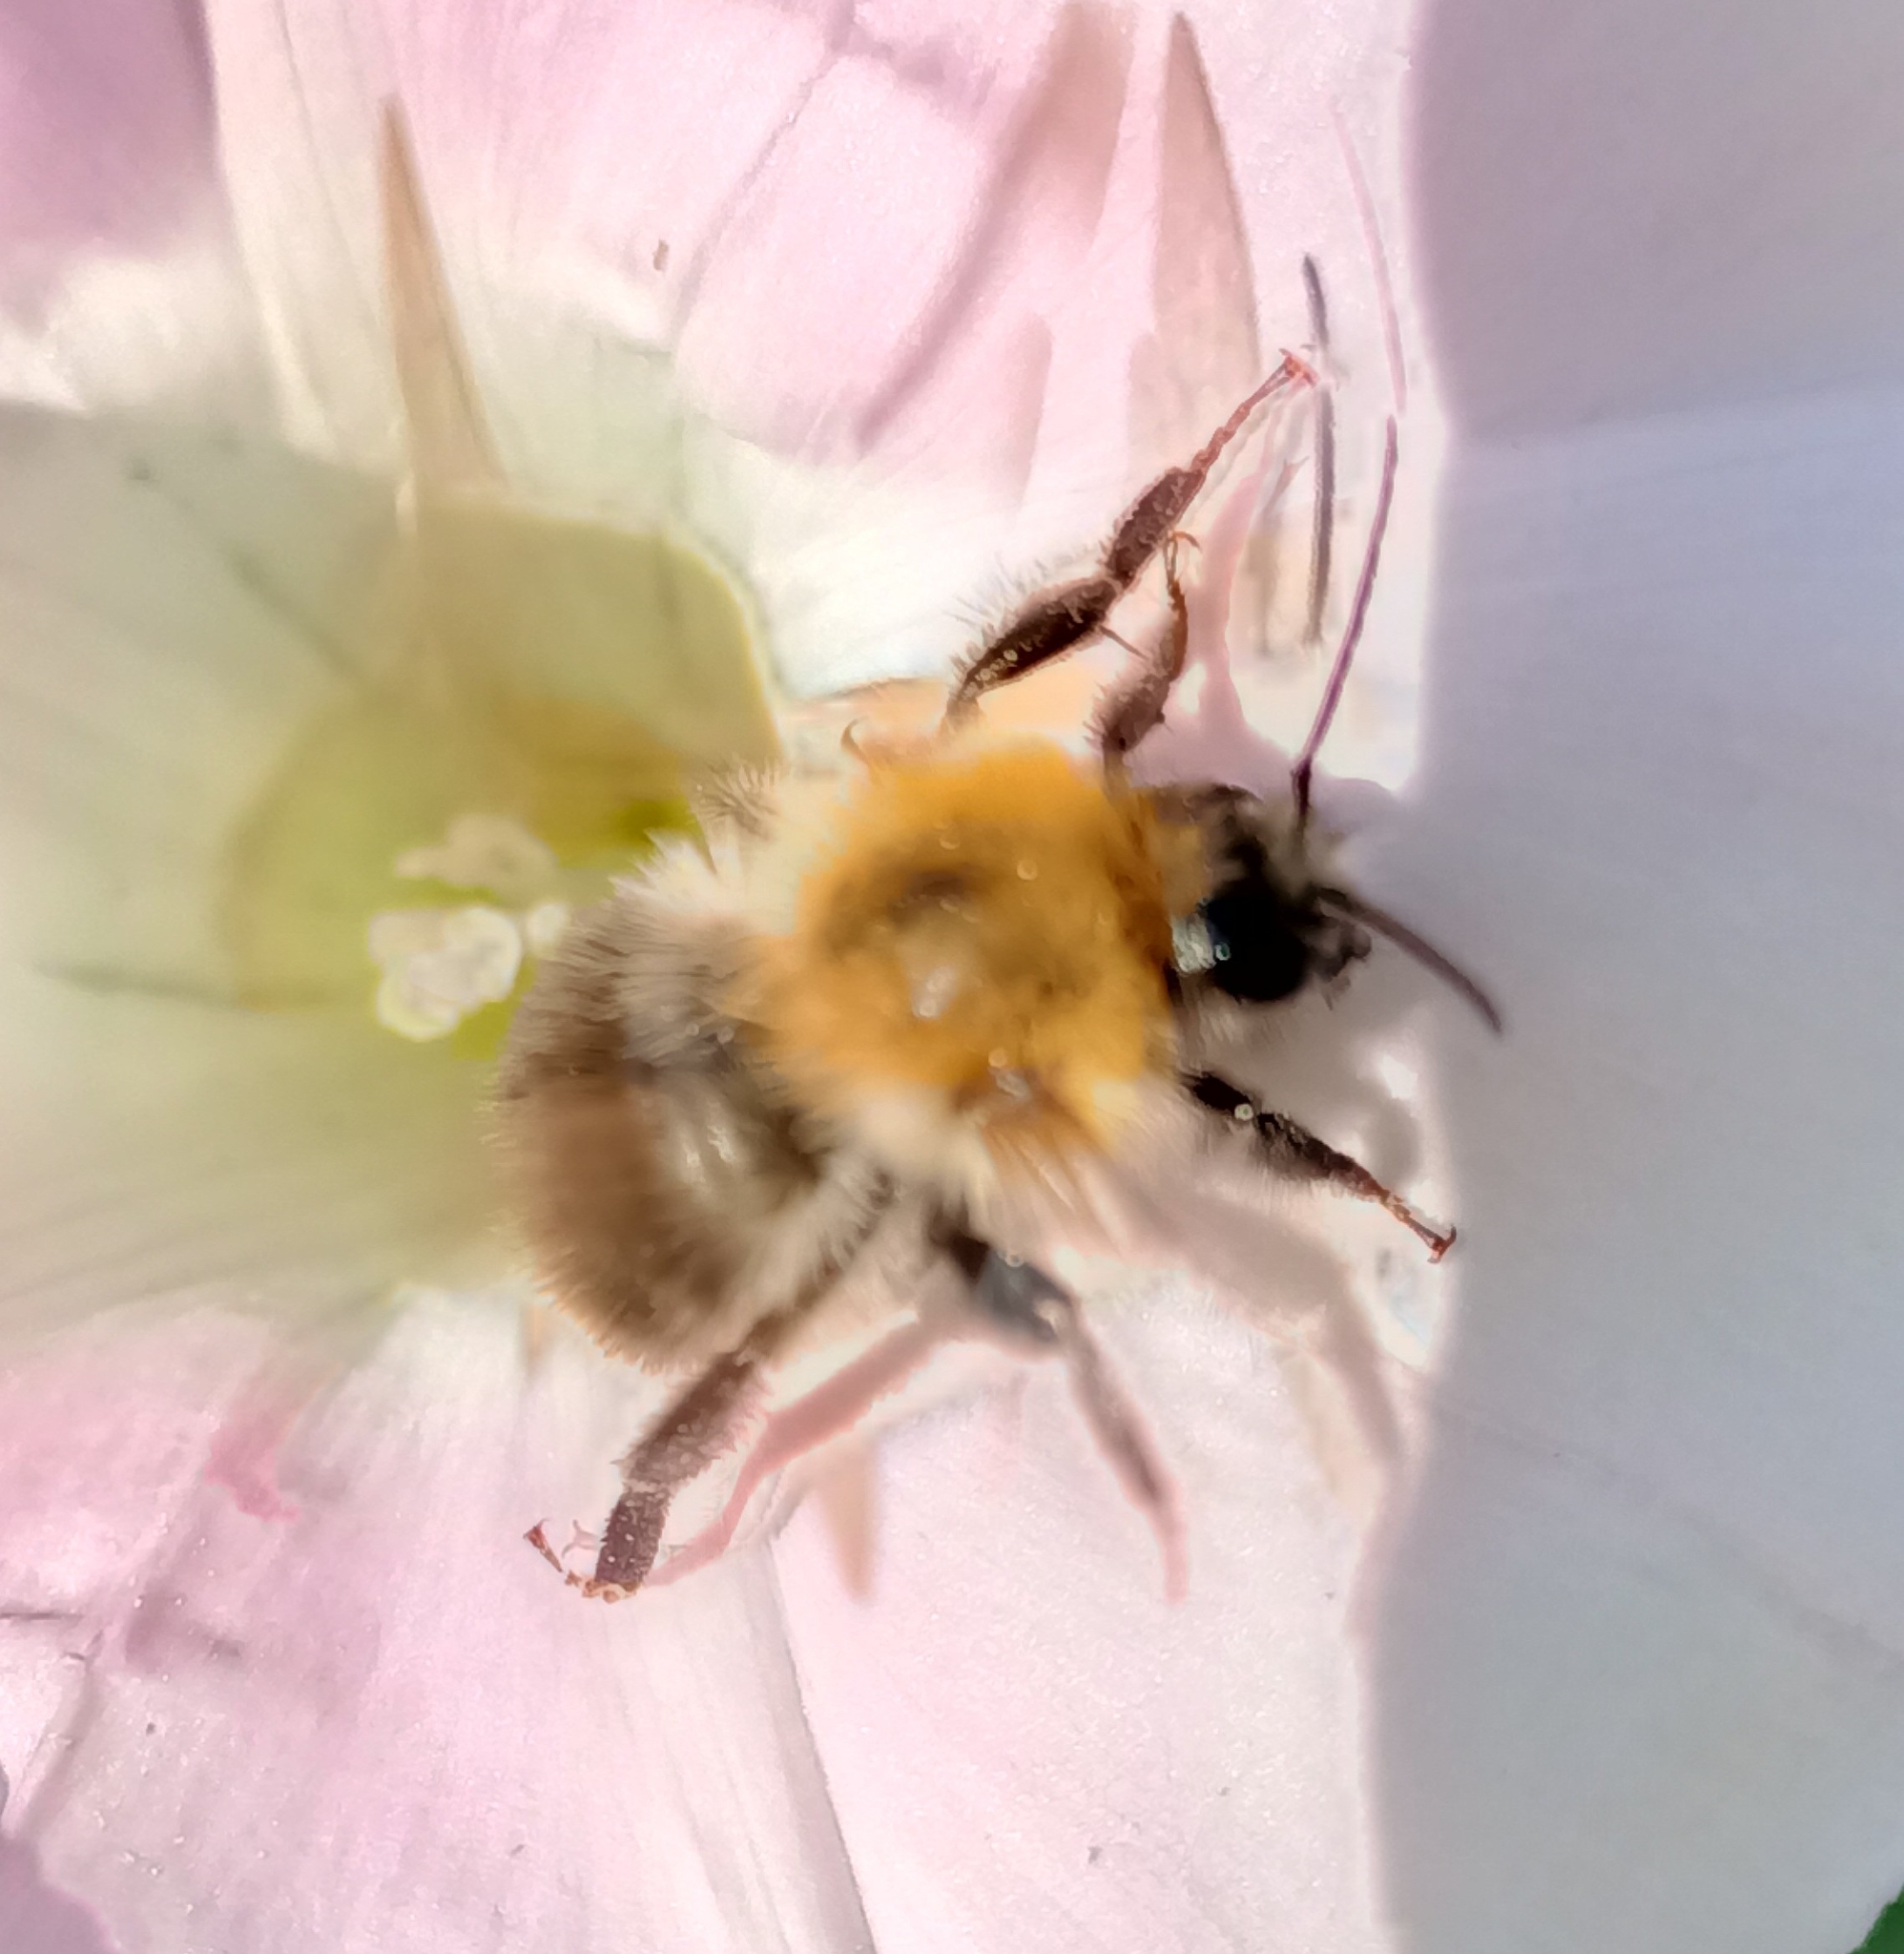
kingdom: Animalia
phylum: Arthropoda
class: Insecta
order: Hymenoptera
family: Apidae
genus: Bombus
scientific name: Bombus pascuorum
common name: Common carder bee
